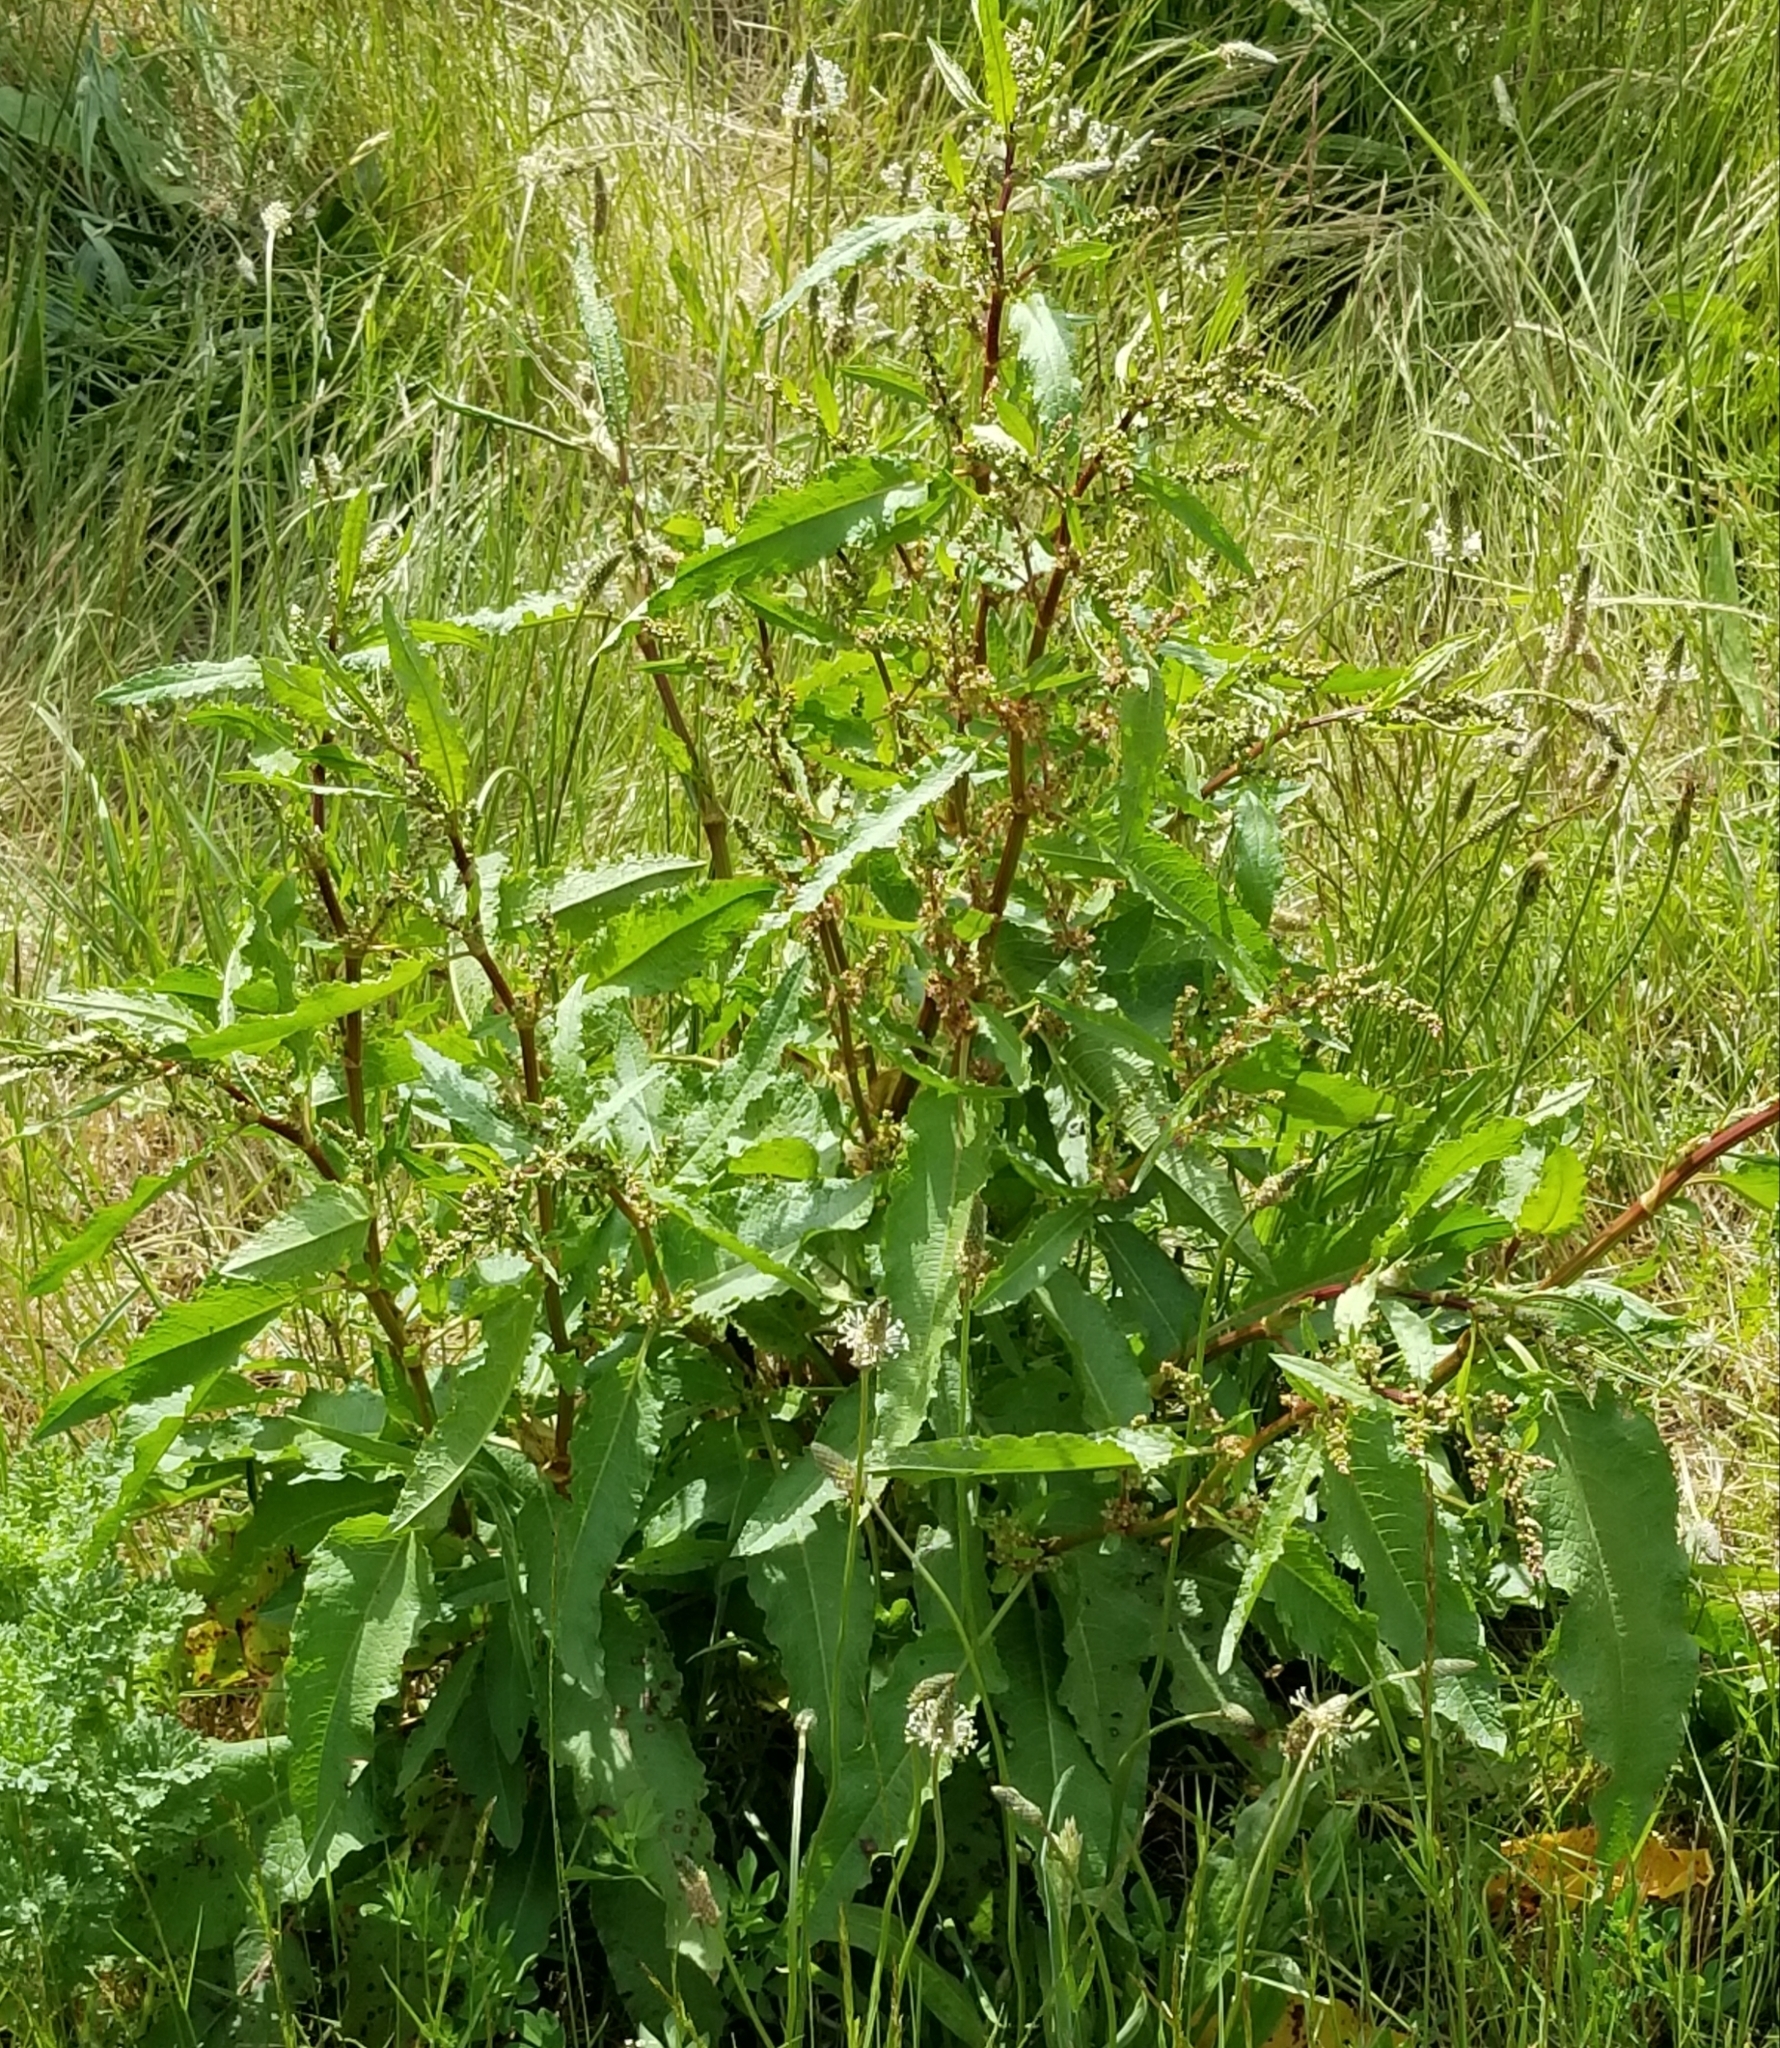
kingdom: Plantae
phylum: Tracheophyta
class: Magnoliopsida
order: Caryophyllales
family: Polygonaceae
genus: Rumex
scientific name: Rumex crispus
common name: Curled dock
